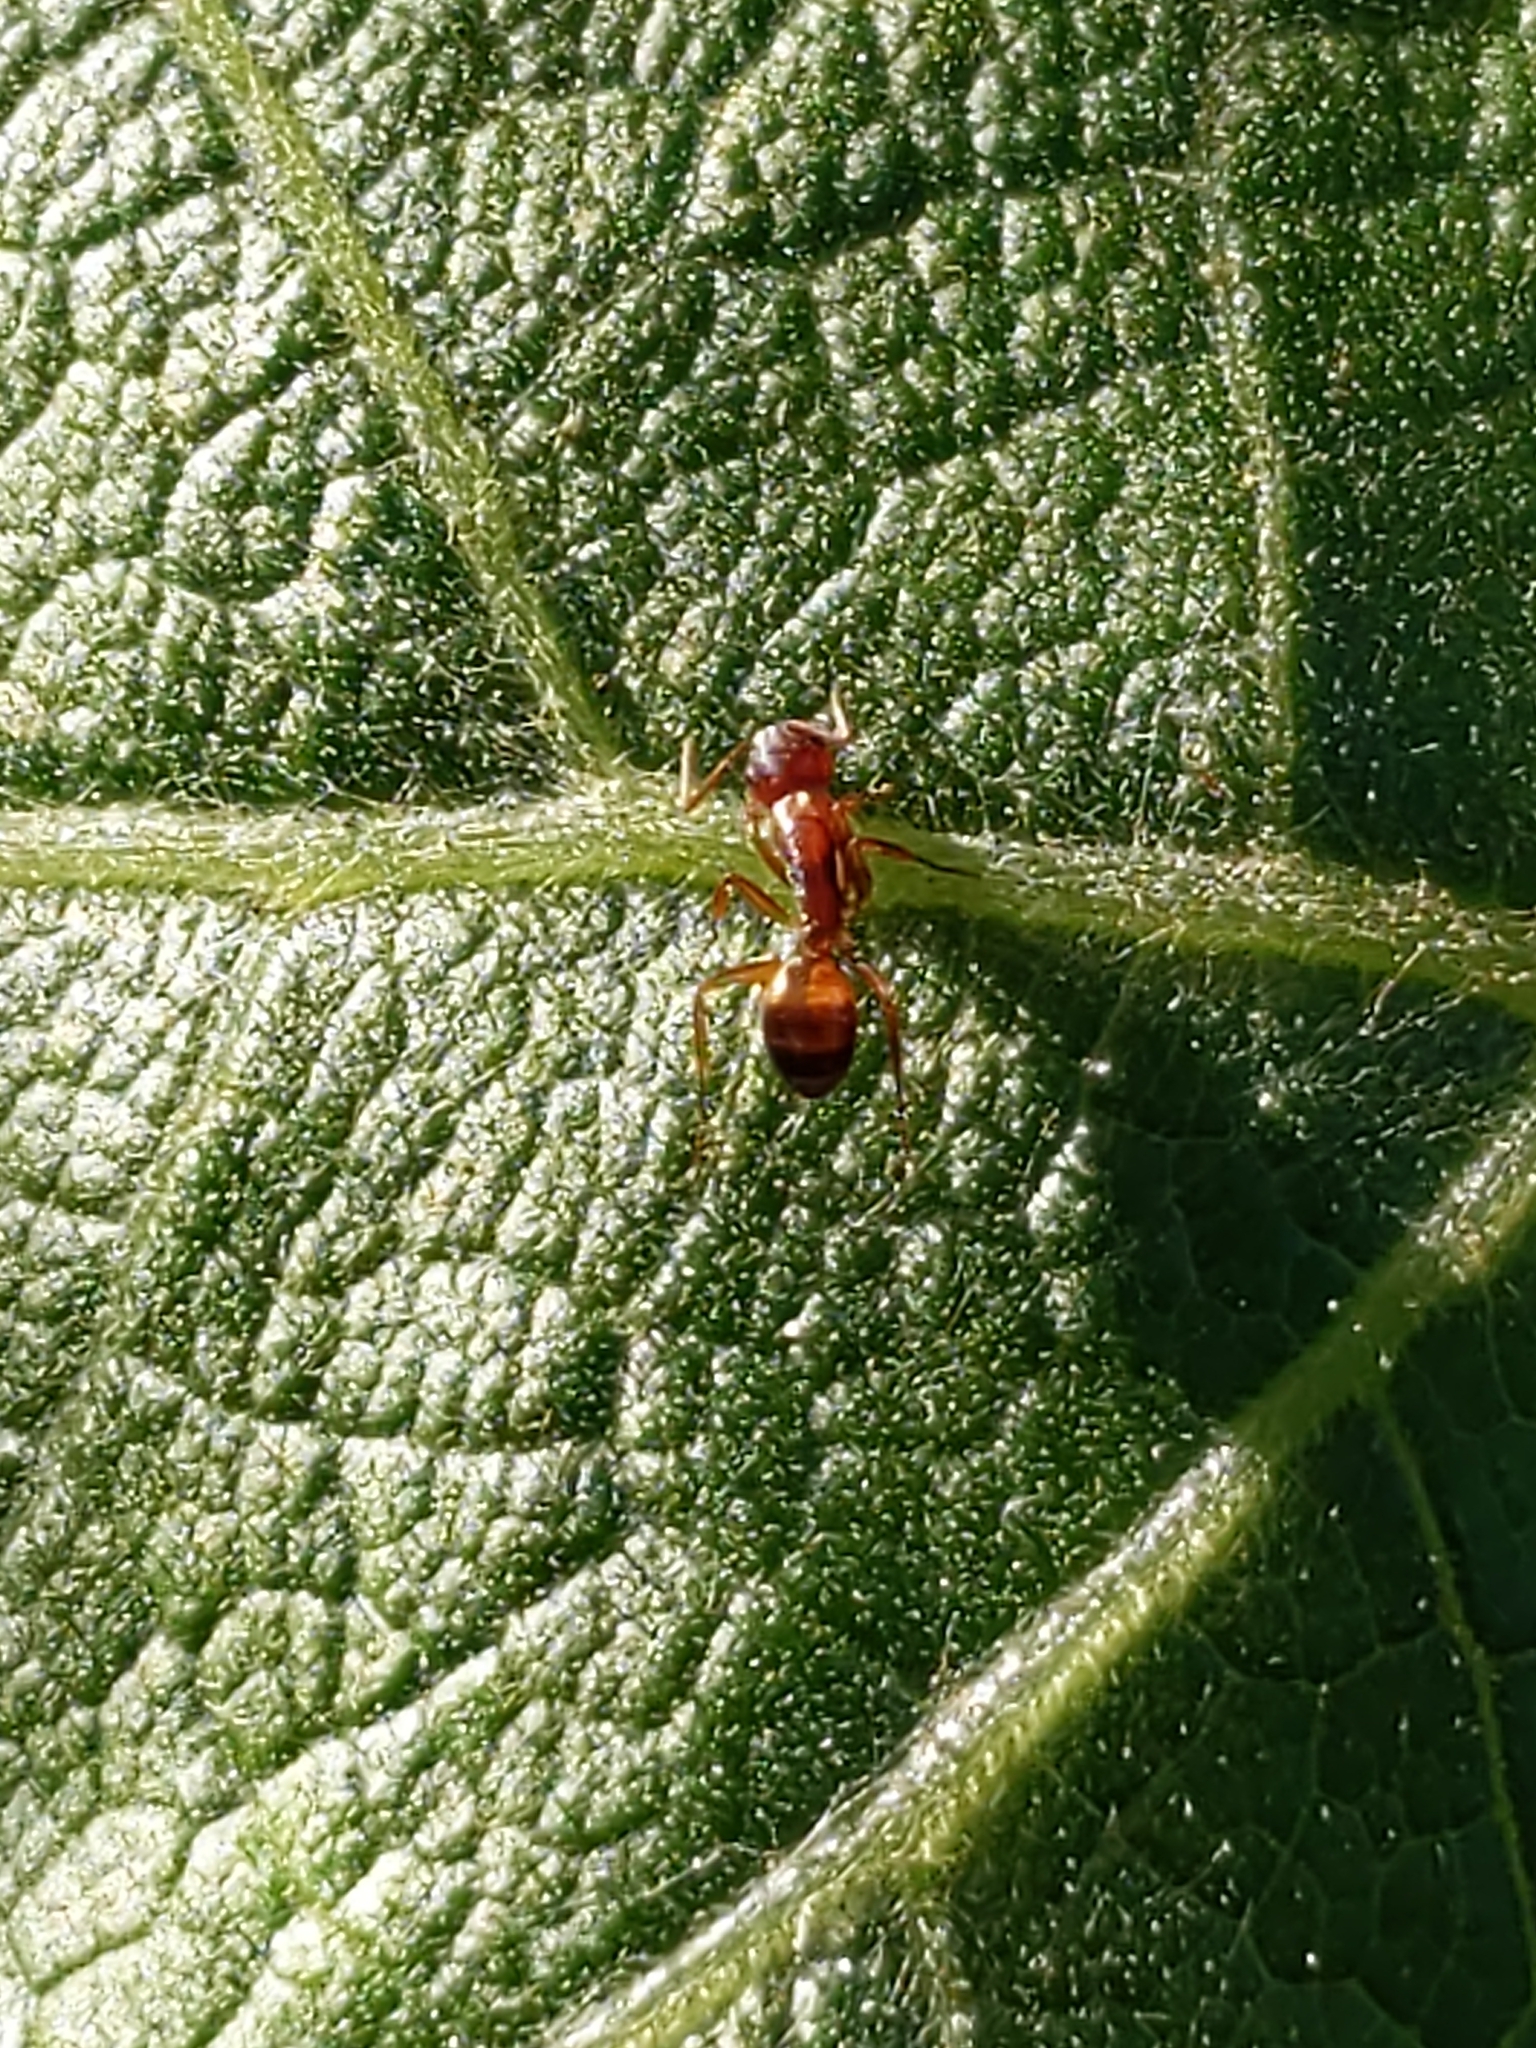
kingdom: Animalia
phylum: Arthropoda
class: Insecta
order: Hymenoptera
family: Formicidae
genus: Camponotus
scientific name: Camponotus subbarbatus
